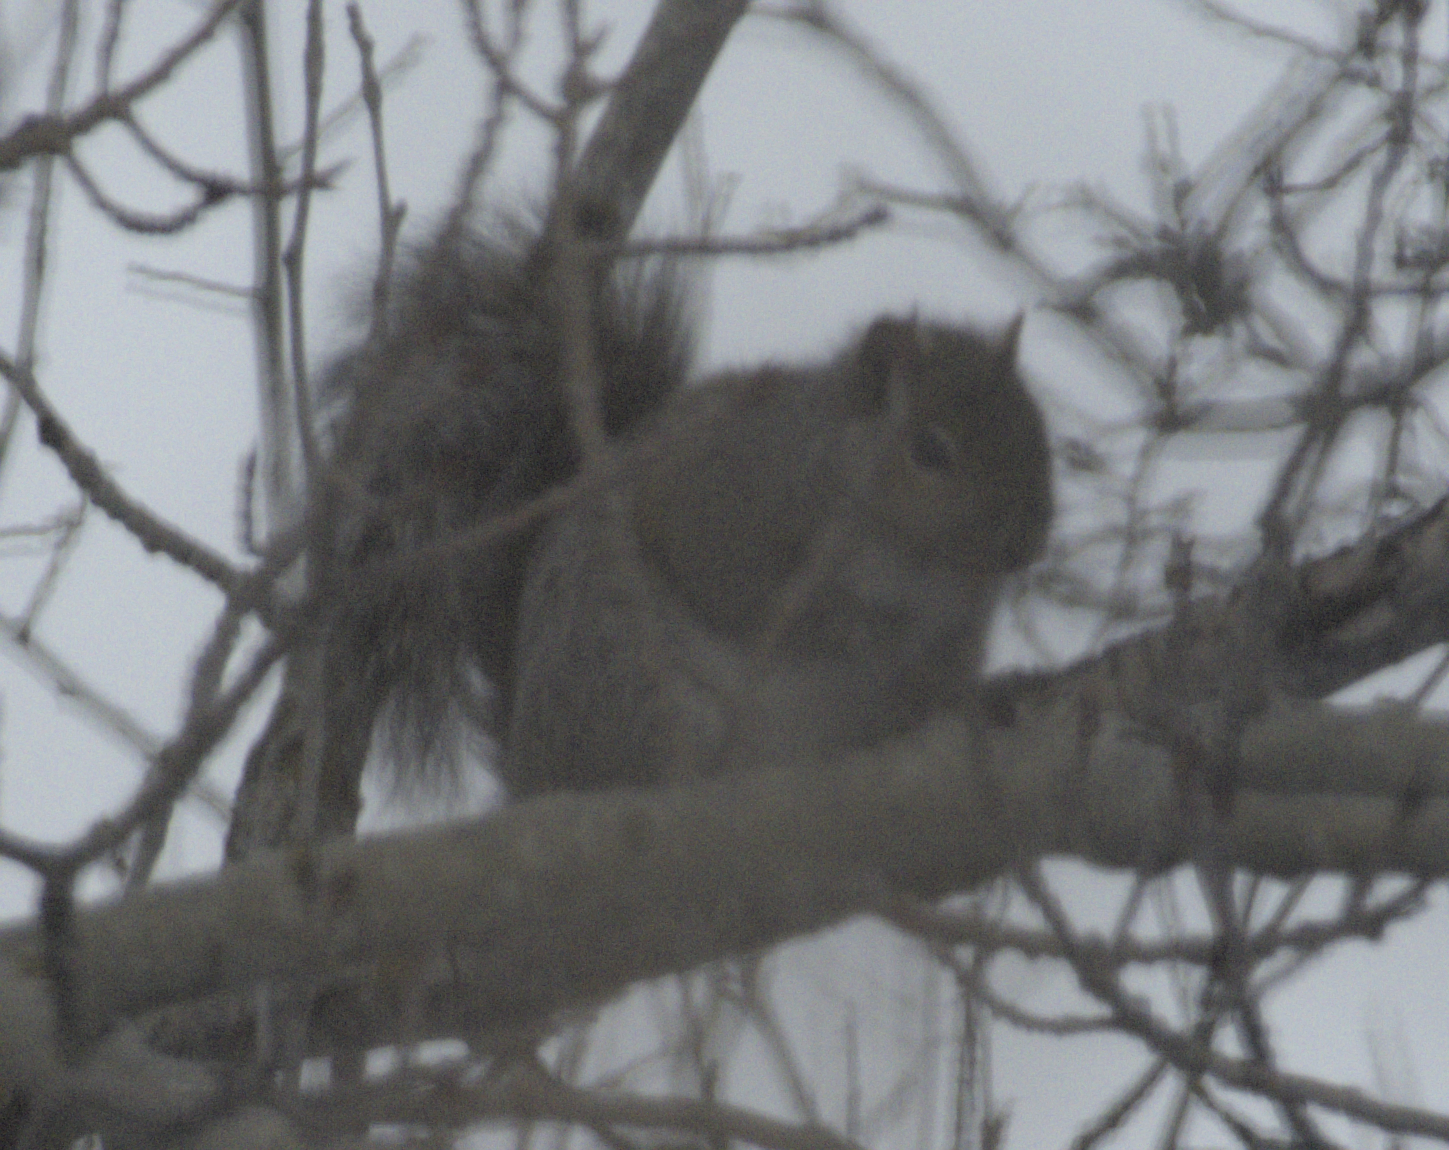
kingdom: Animalia
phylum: Chordata
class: Mammalia
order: Rodentia
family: Sciuridae
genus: Sciurus
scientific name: Sciurus carolinensis
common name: Eastern gray squirrel
